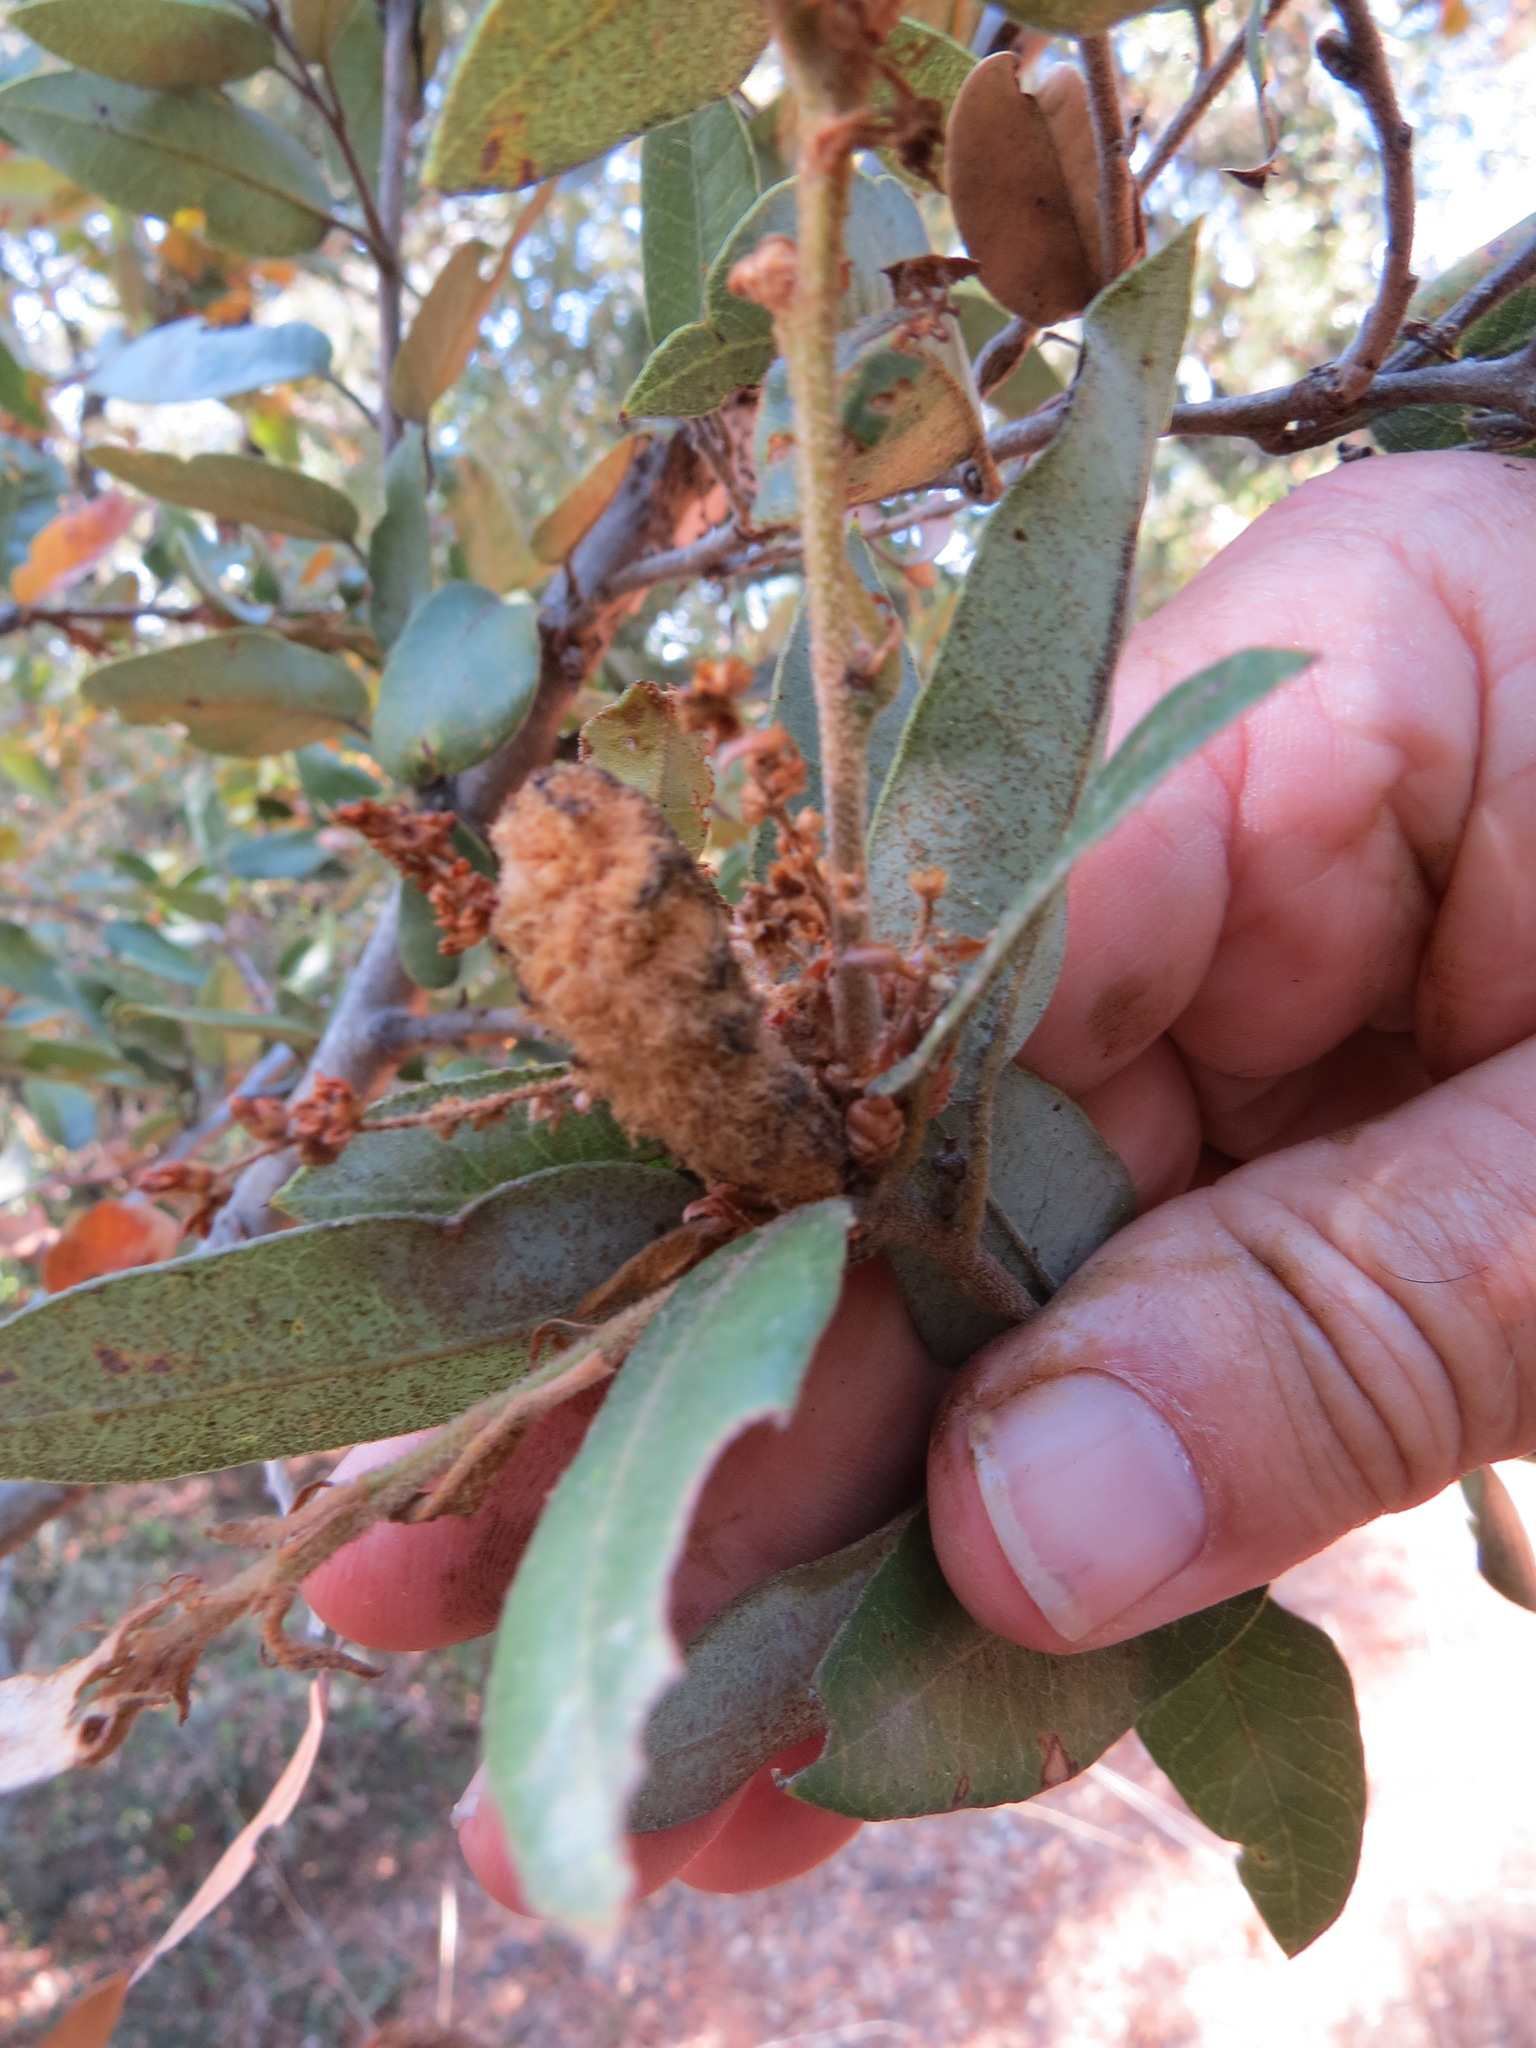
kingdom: Animalia
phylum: Arthropoda
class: Insecta
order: Hymenoptera
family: Cynipidae
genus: Heteroecus
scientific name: Heteroecus
